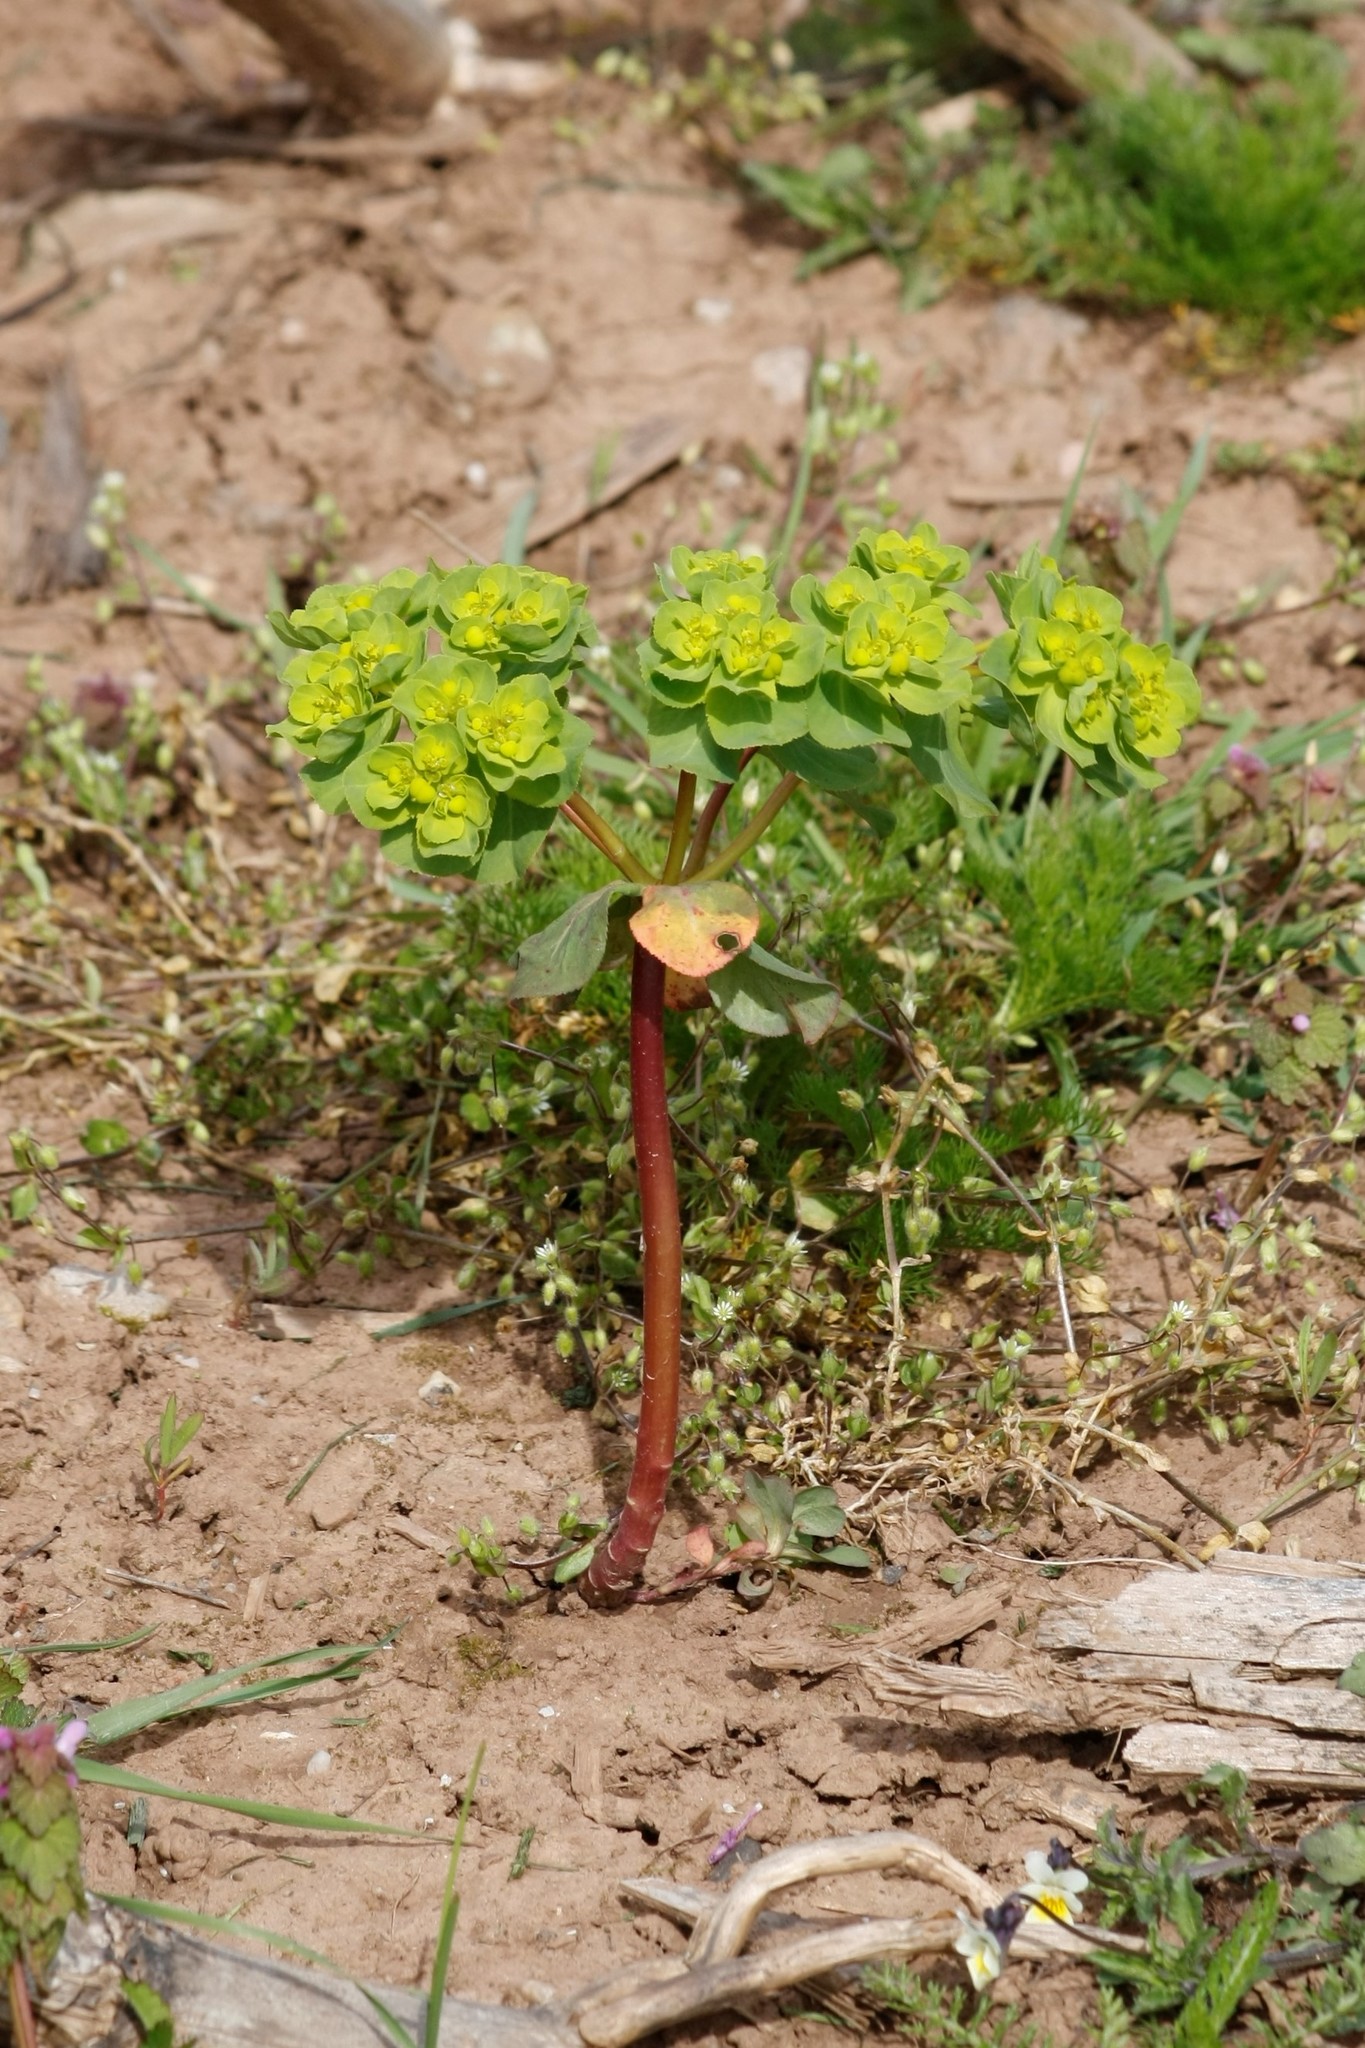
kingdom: Plantae
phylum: Tracheophyta
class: Magnoliopsida
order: Malpighiales
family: Euphorbiaceae
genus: Euphorbia
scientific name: Euphorbia helioscopia
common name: Sun spurge
